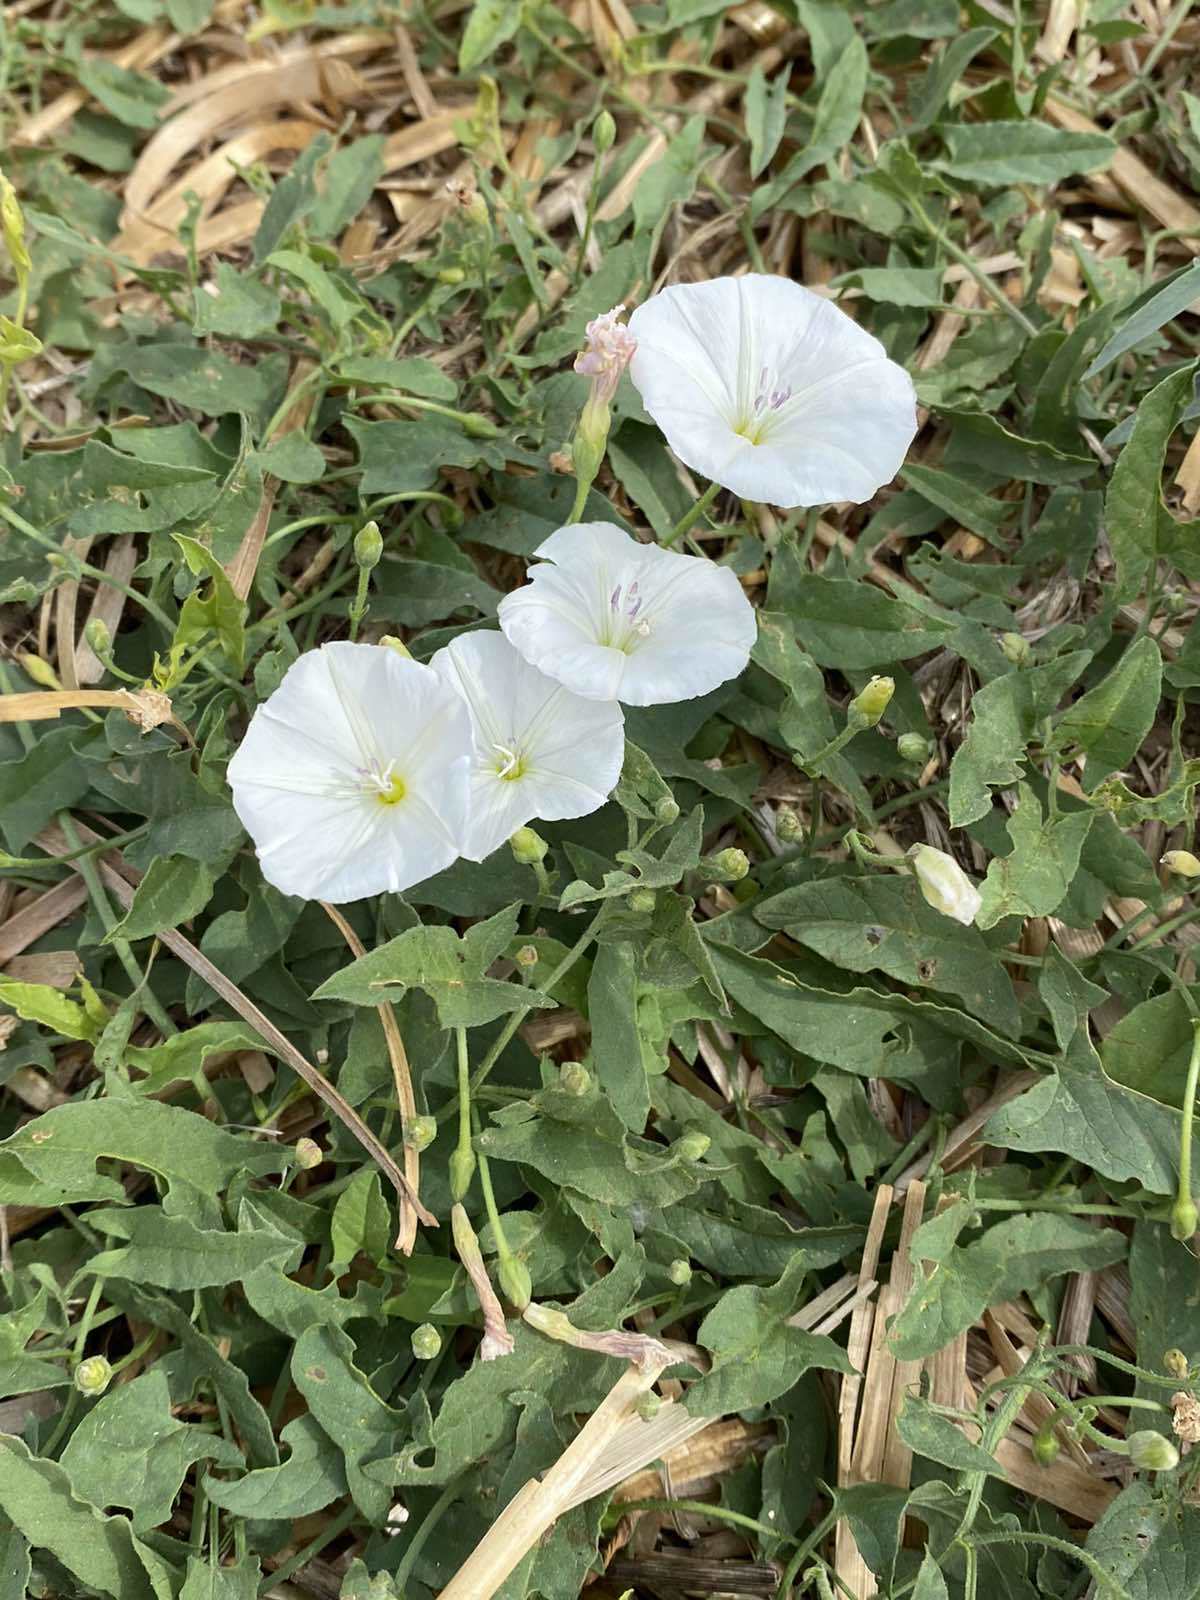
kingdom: Plantae
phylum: Tracheophyta
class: Magnoliopsida
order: Solanales
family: Convolvulaceae
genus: Convolvulus
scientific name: Convolvulus arvensis
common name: Field bindweed
